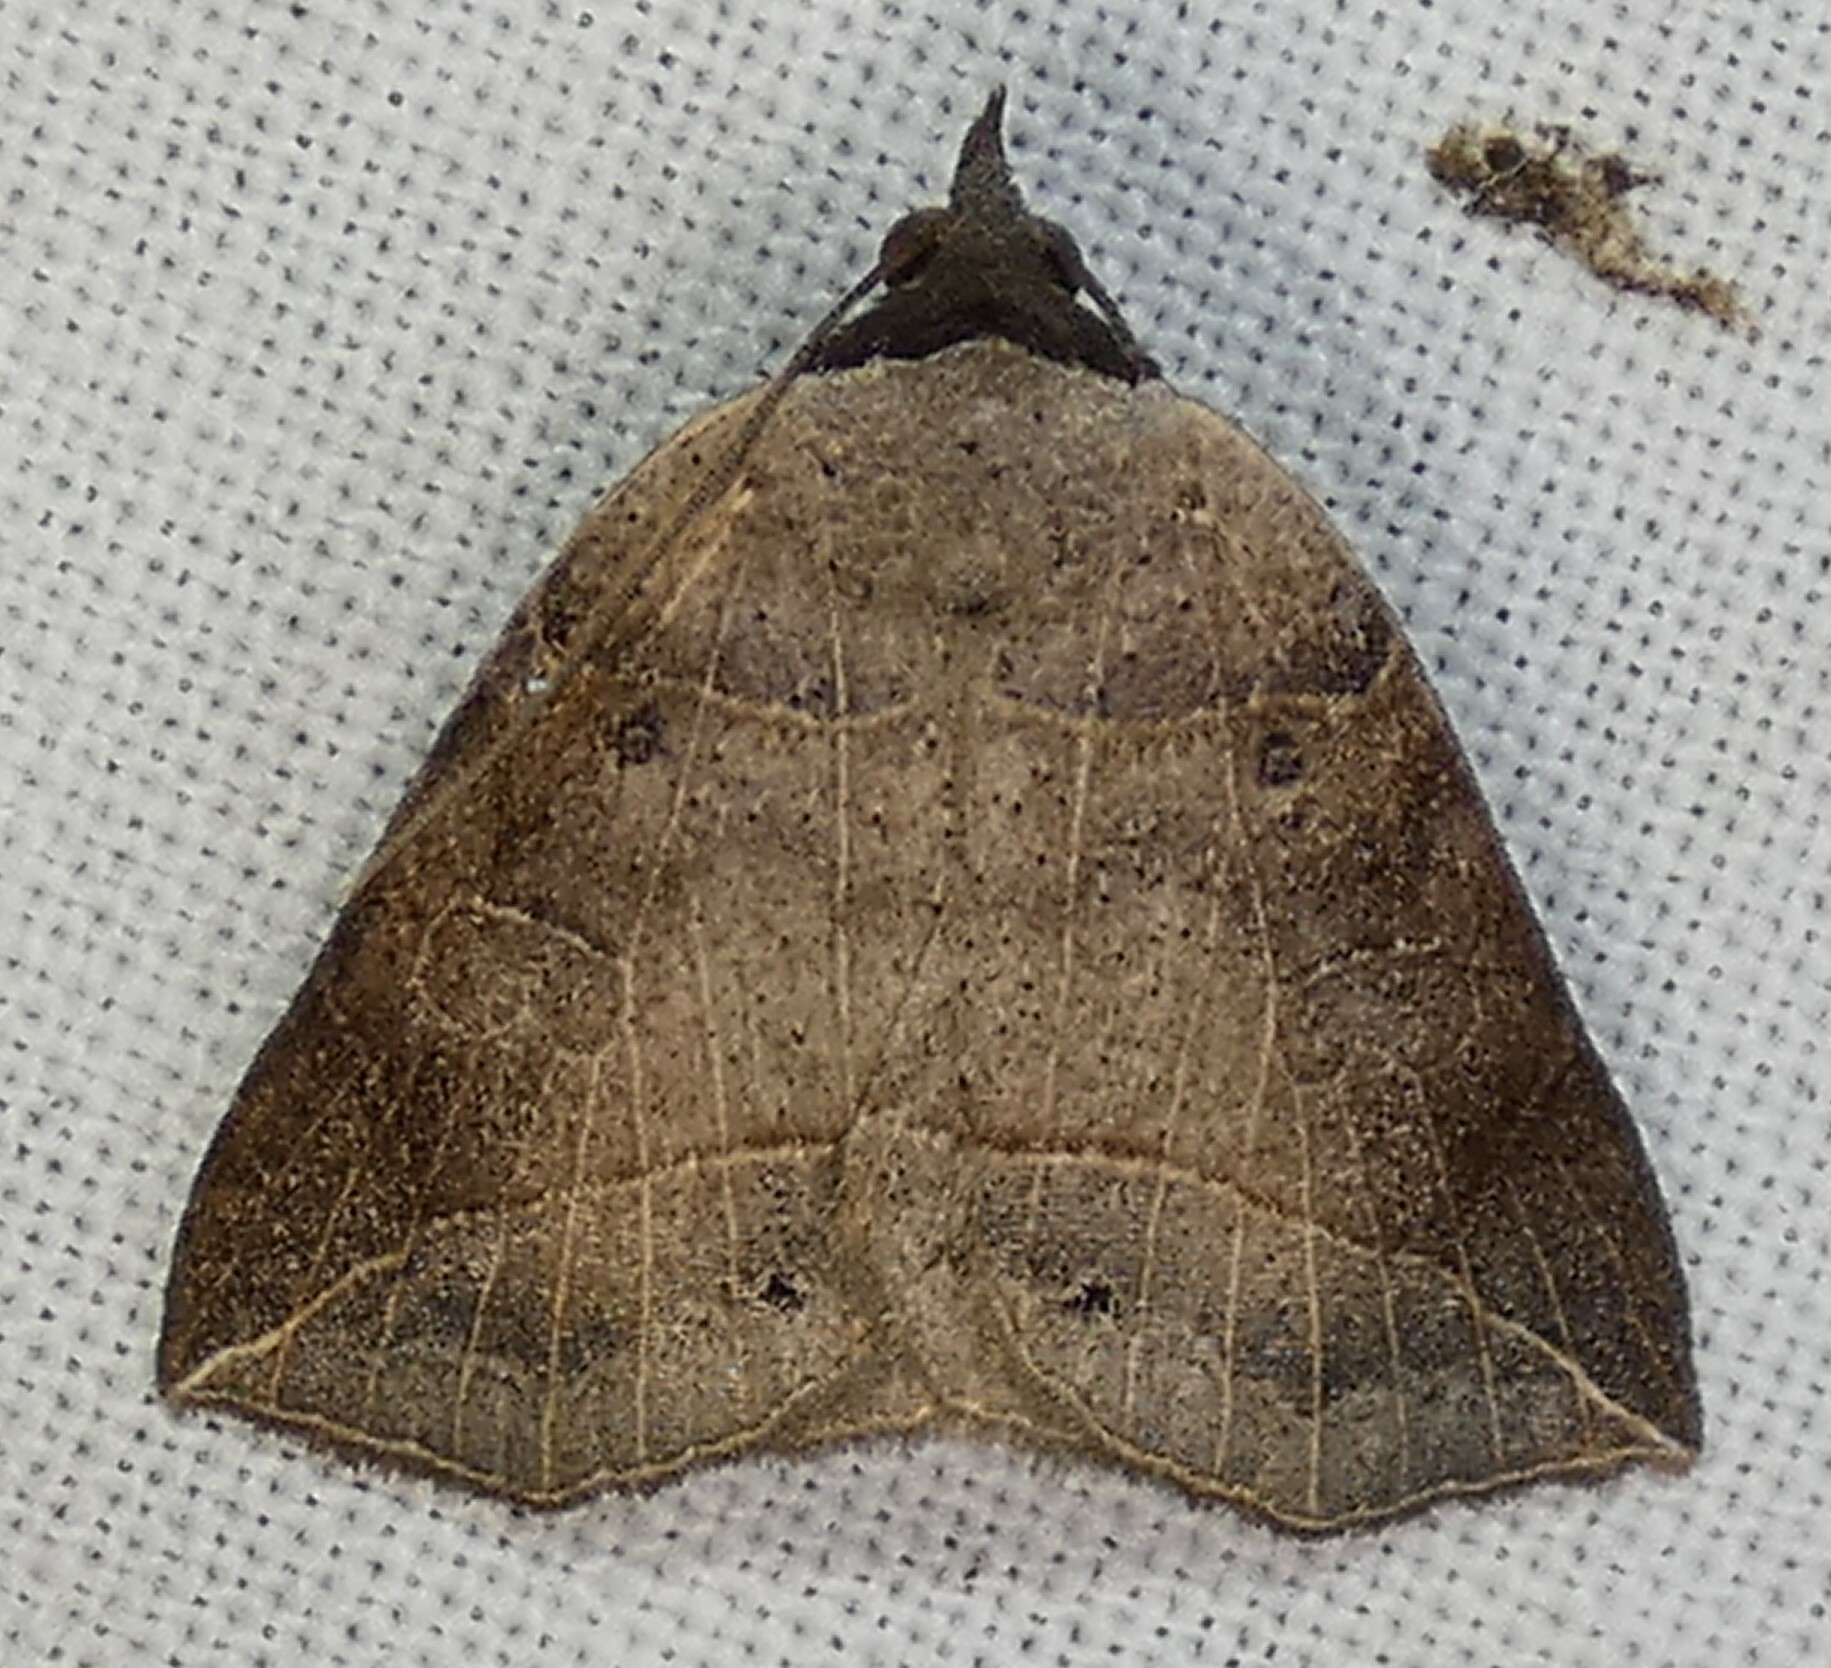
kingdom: Animalia
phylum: Arthropoda
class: Insecta
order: Lepidoptera
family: Erebidae
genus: Isogona
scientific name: Isogona tenuis
